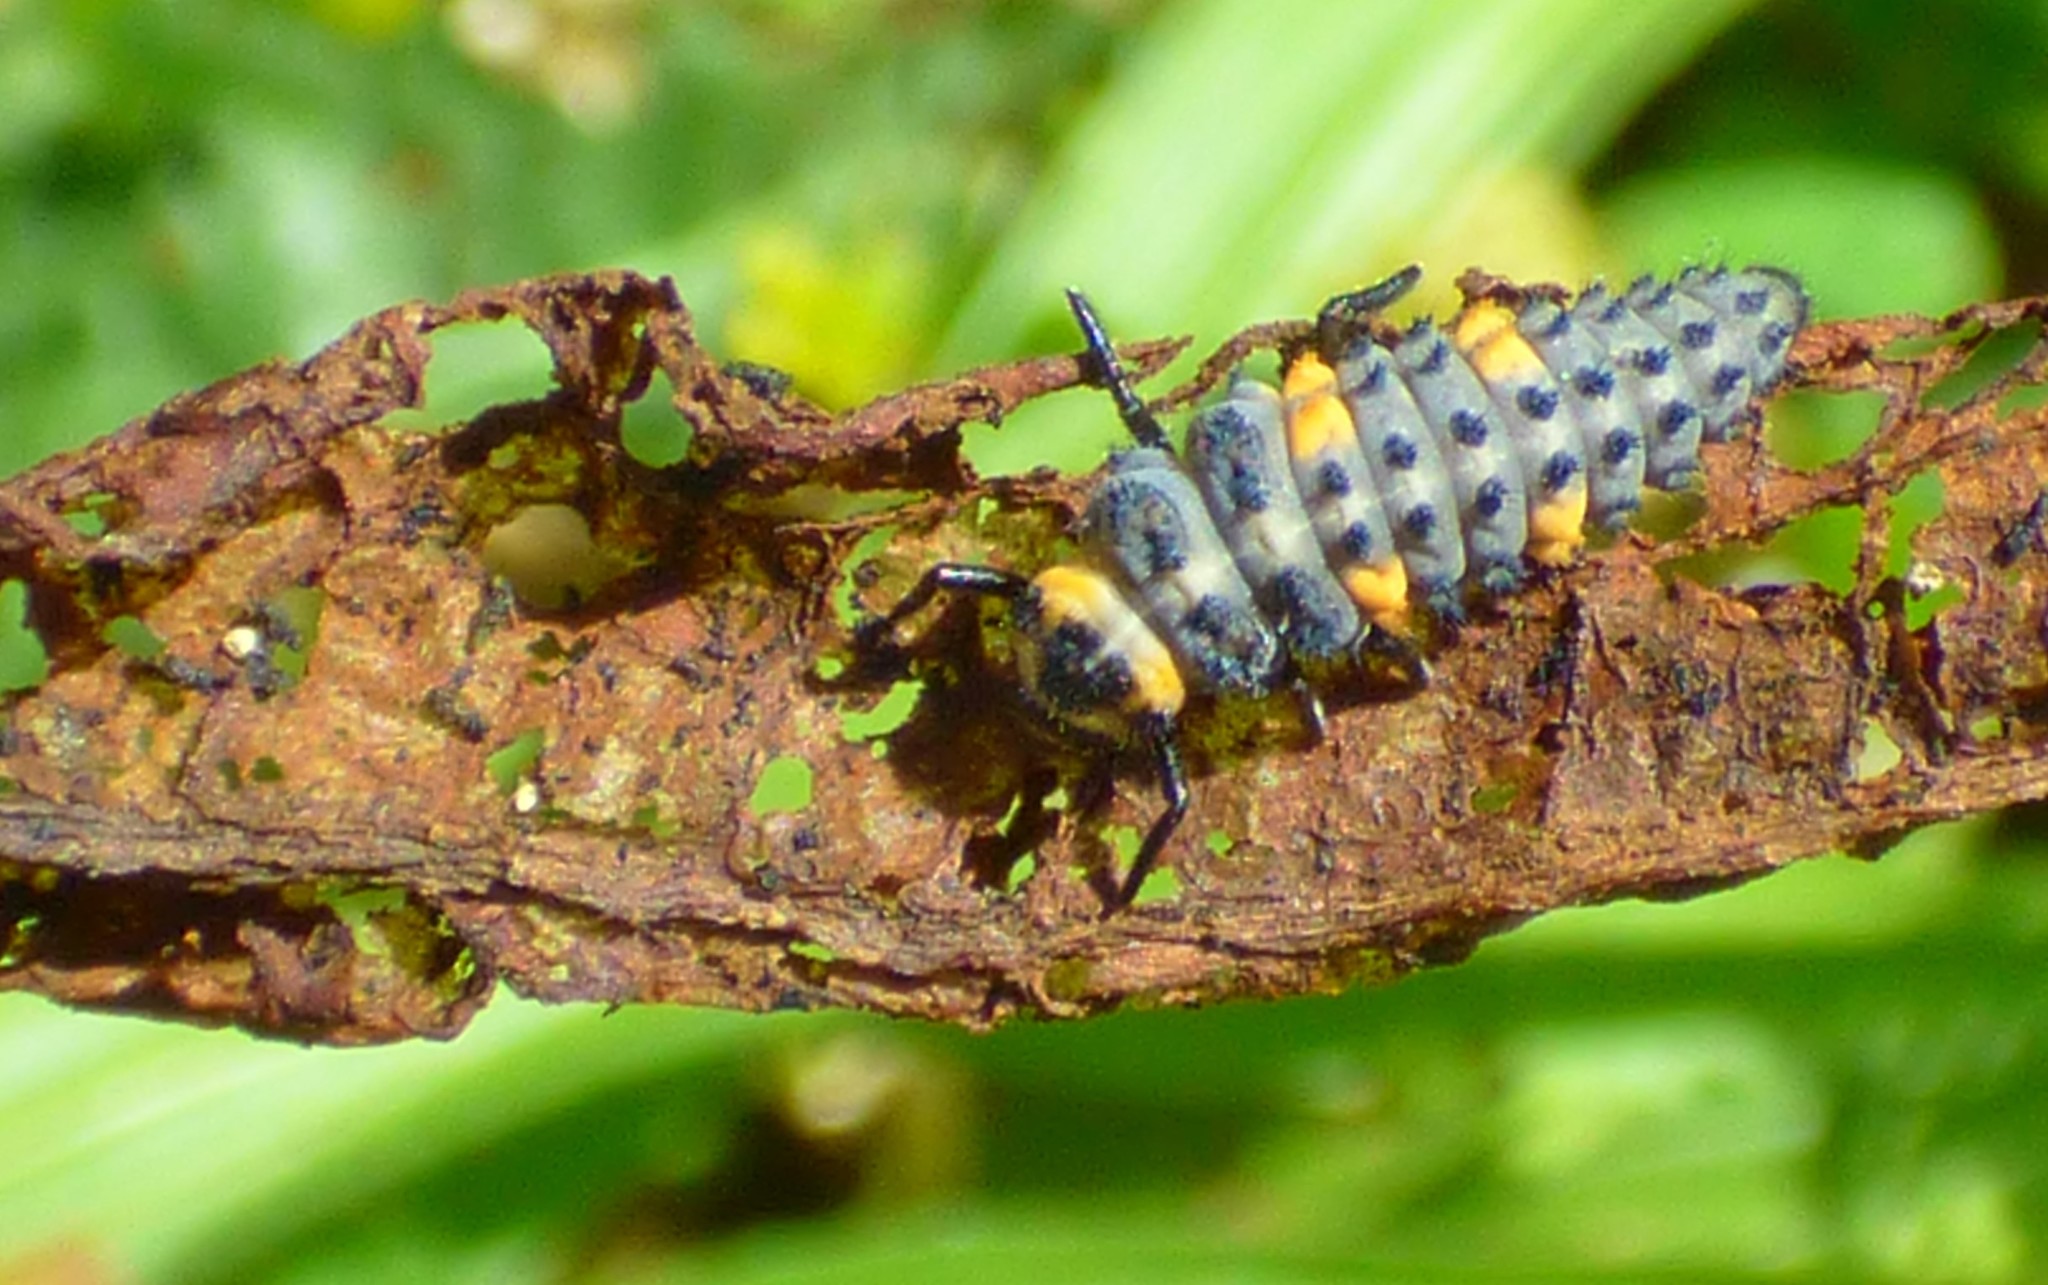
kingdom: Animalia
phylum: Arthropoda
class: Insecta
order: Coleoptera
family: Coccinellidae
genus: Coccinella
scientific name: Coccinella septempunctata
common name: Sevenspotted lady beetle
